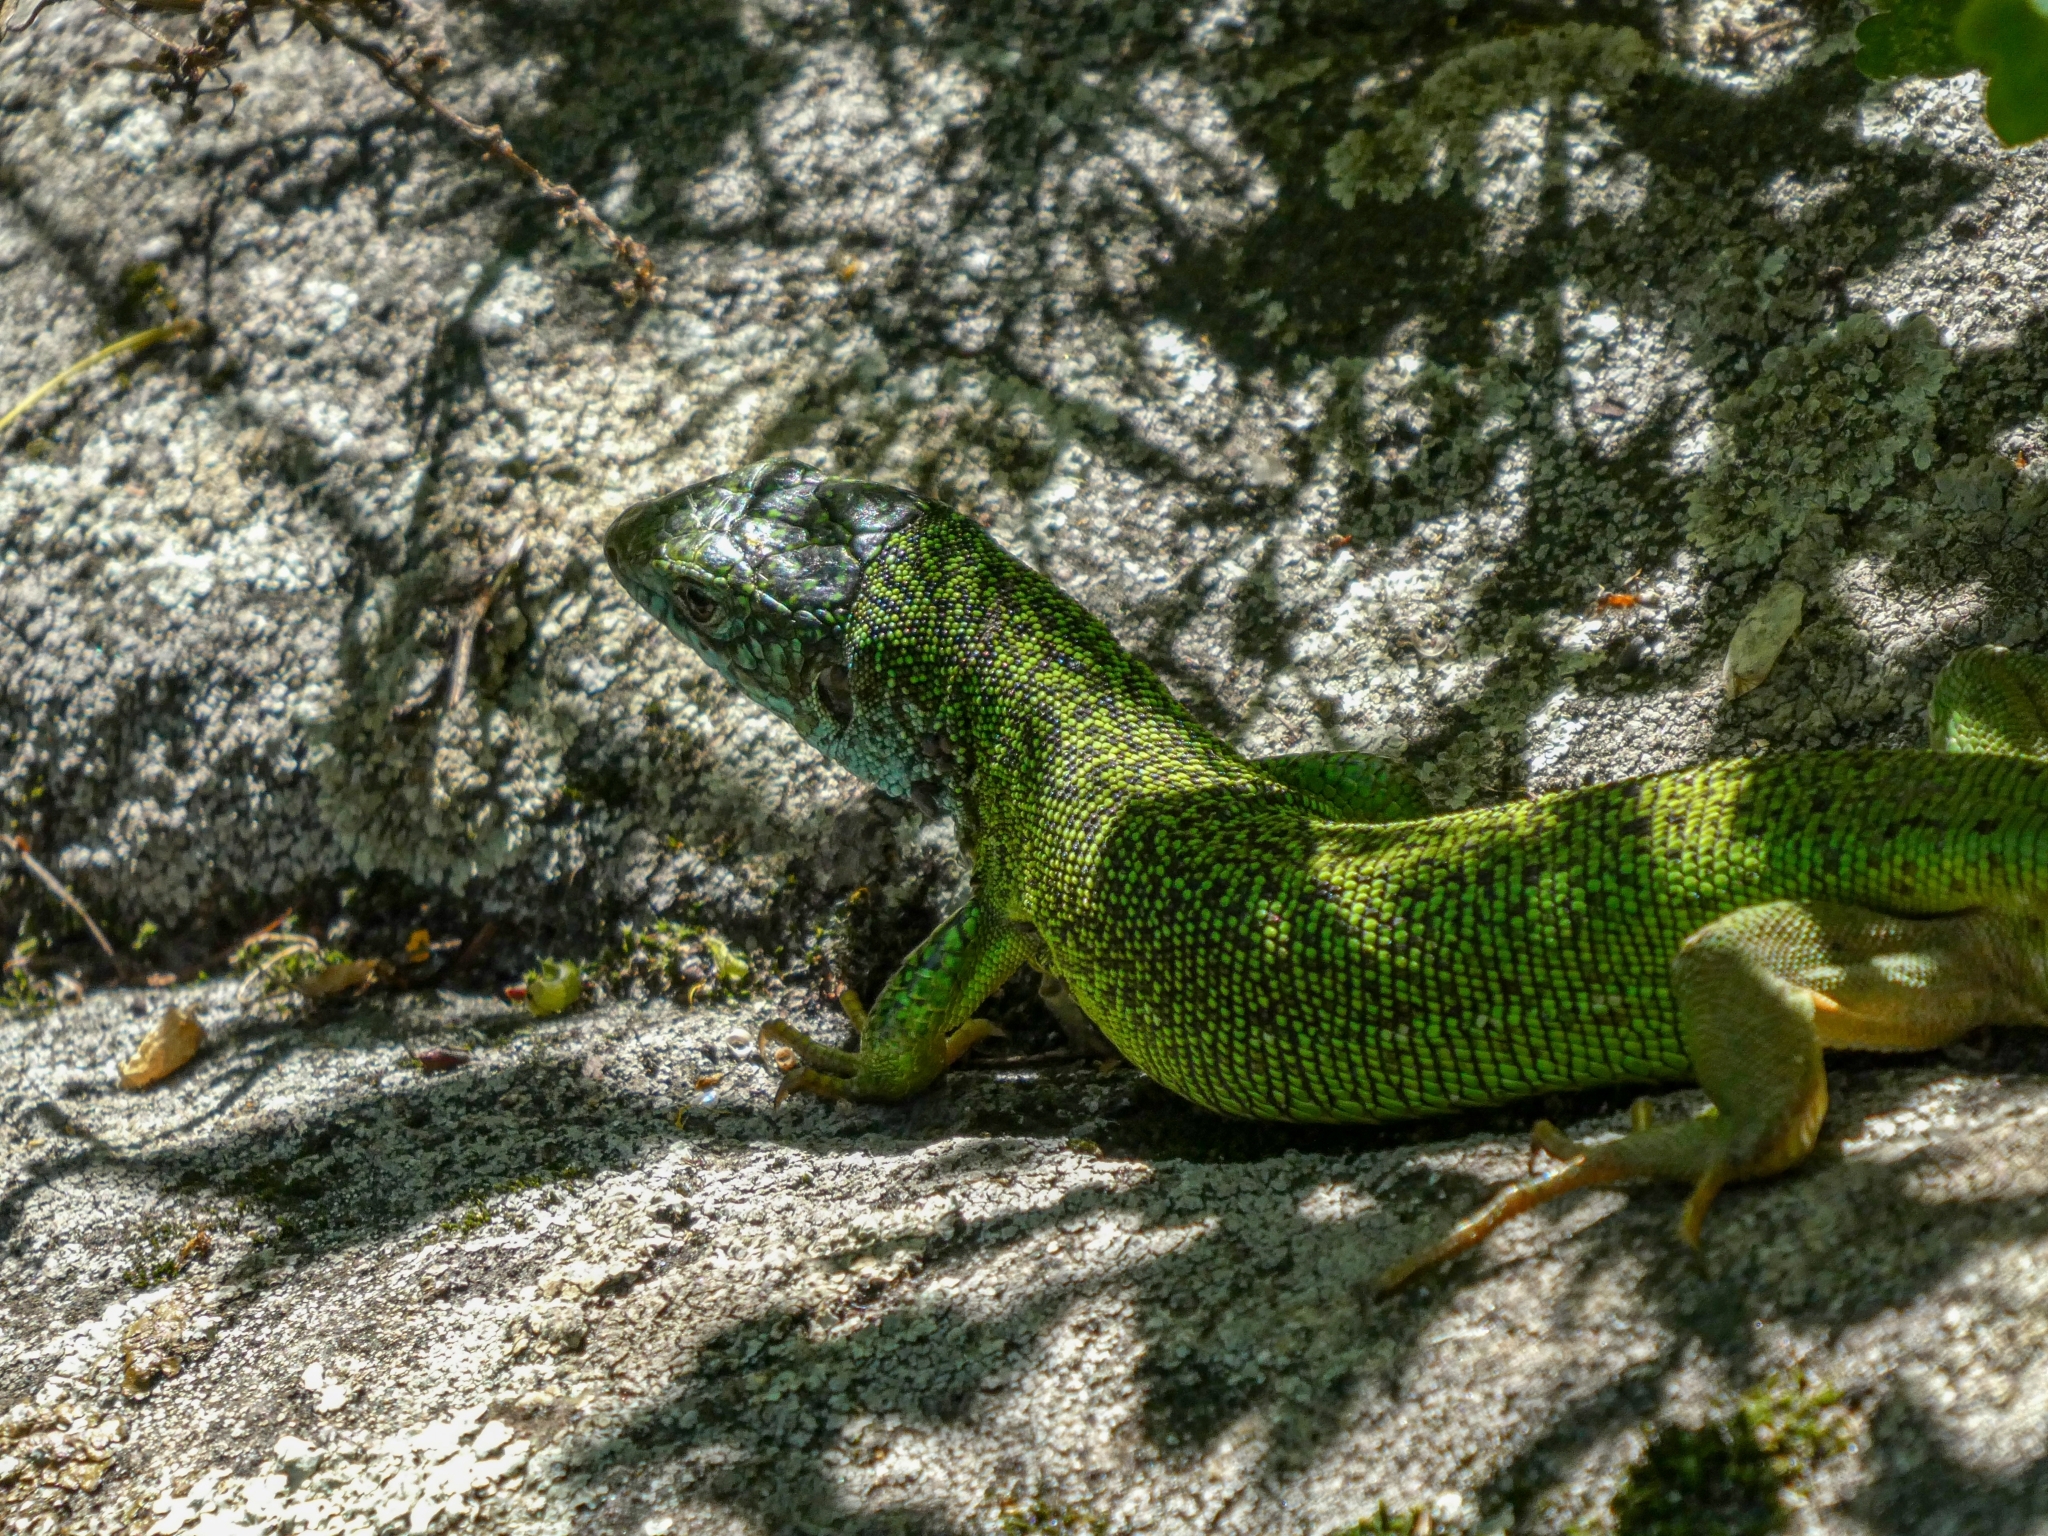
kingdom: Animalia
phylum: Chordata
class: Squamata
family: Lacertidae
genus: Lacerta
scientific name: Lacerta viridis
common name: European green lizard
